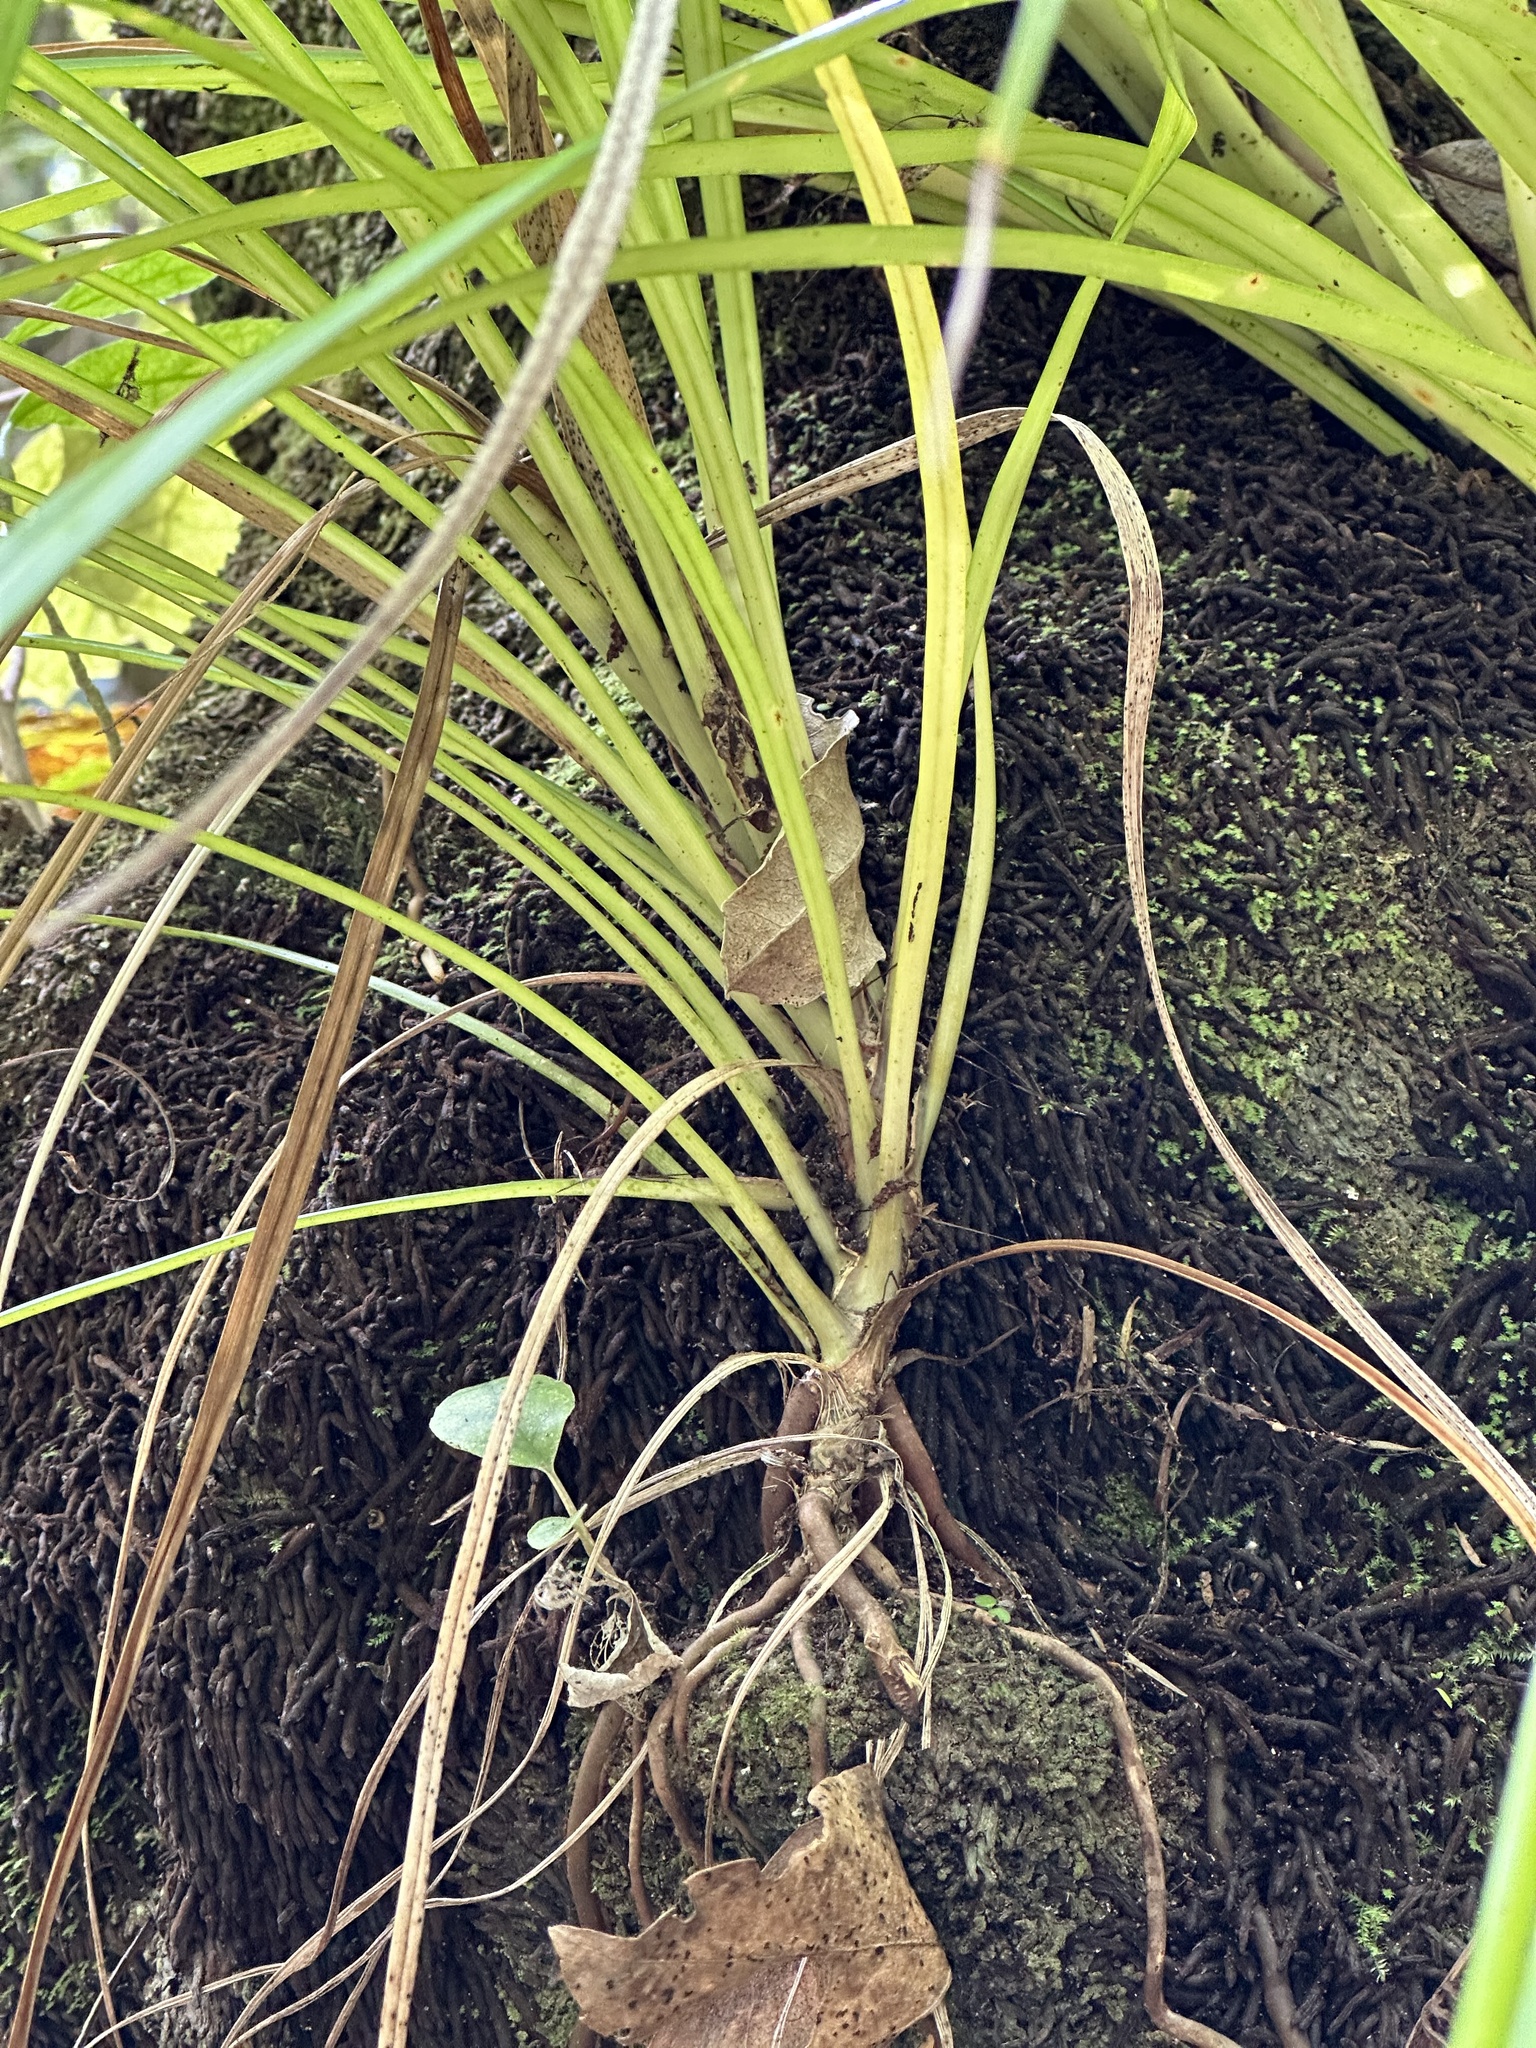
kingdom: Plantae
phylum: Tracheophyta
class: Liliopsida
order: Pandanales
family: Pandanaceae
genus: Freycinetia
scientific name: Freycinetia banksii
